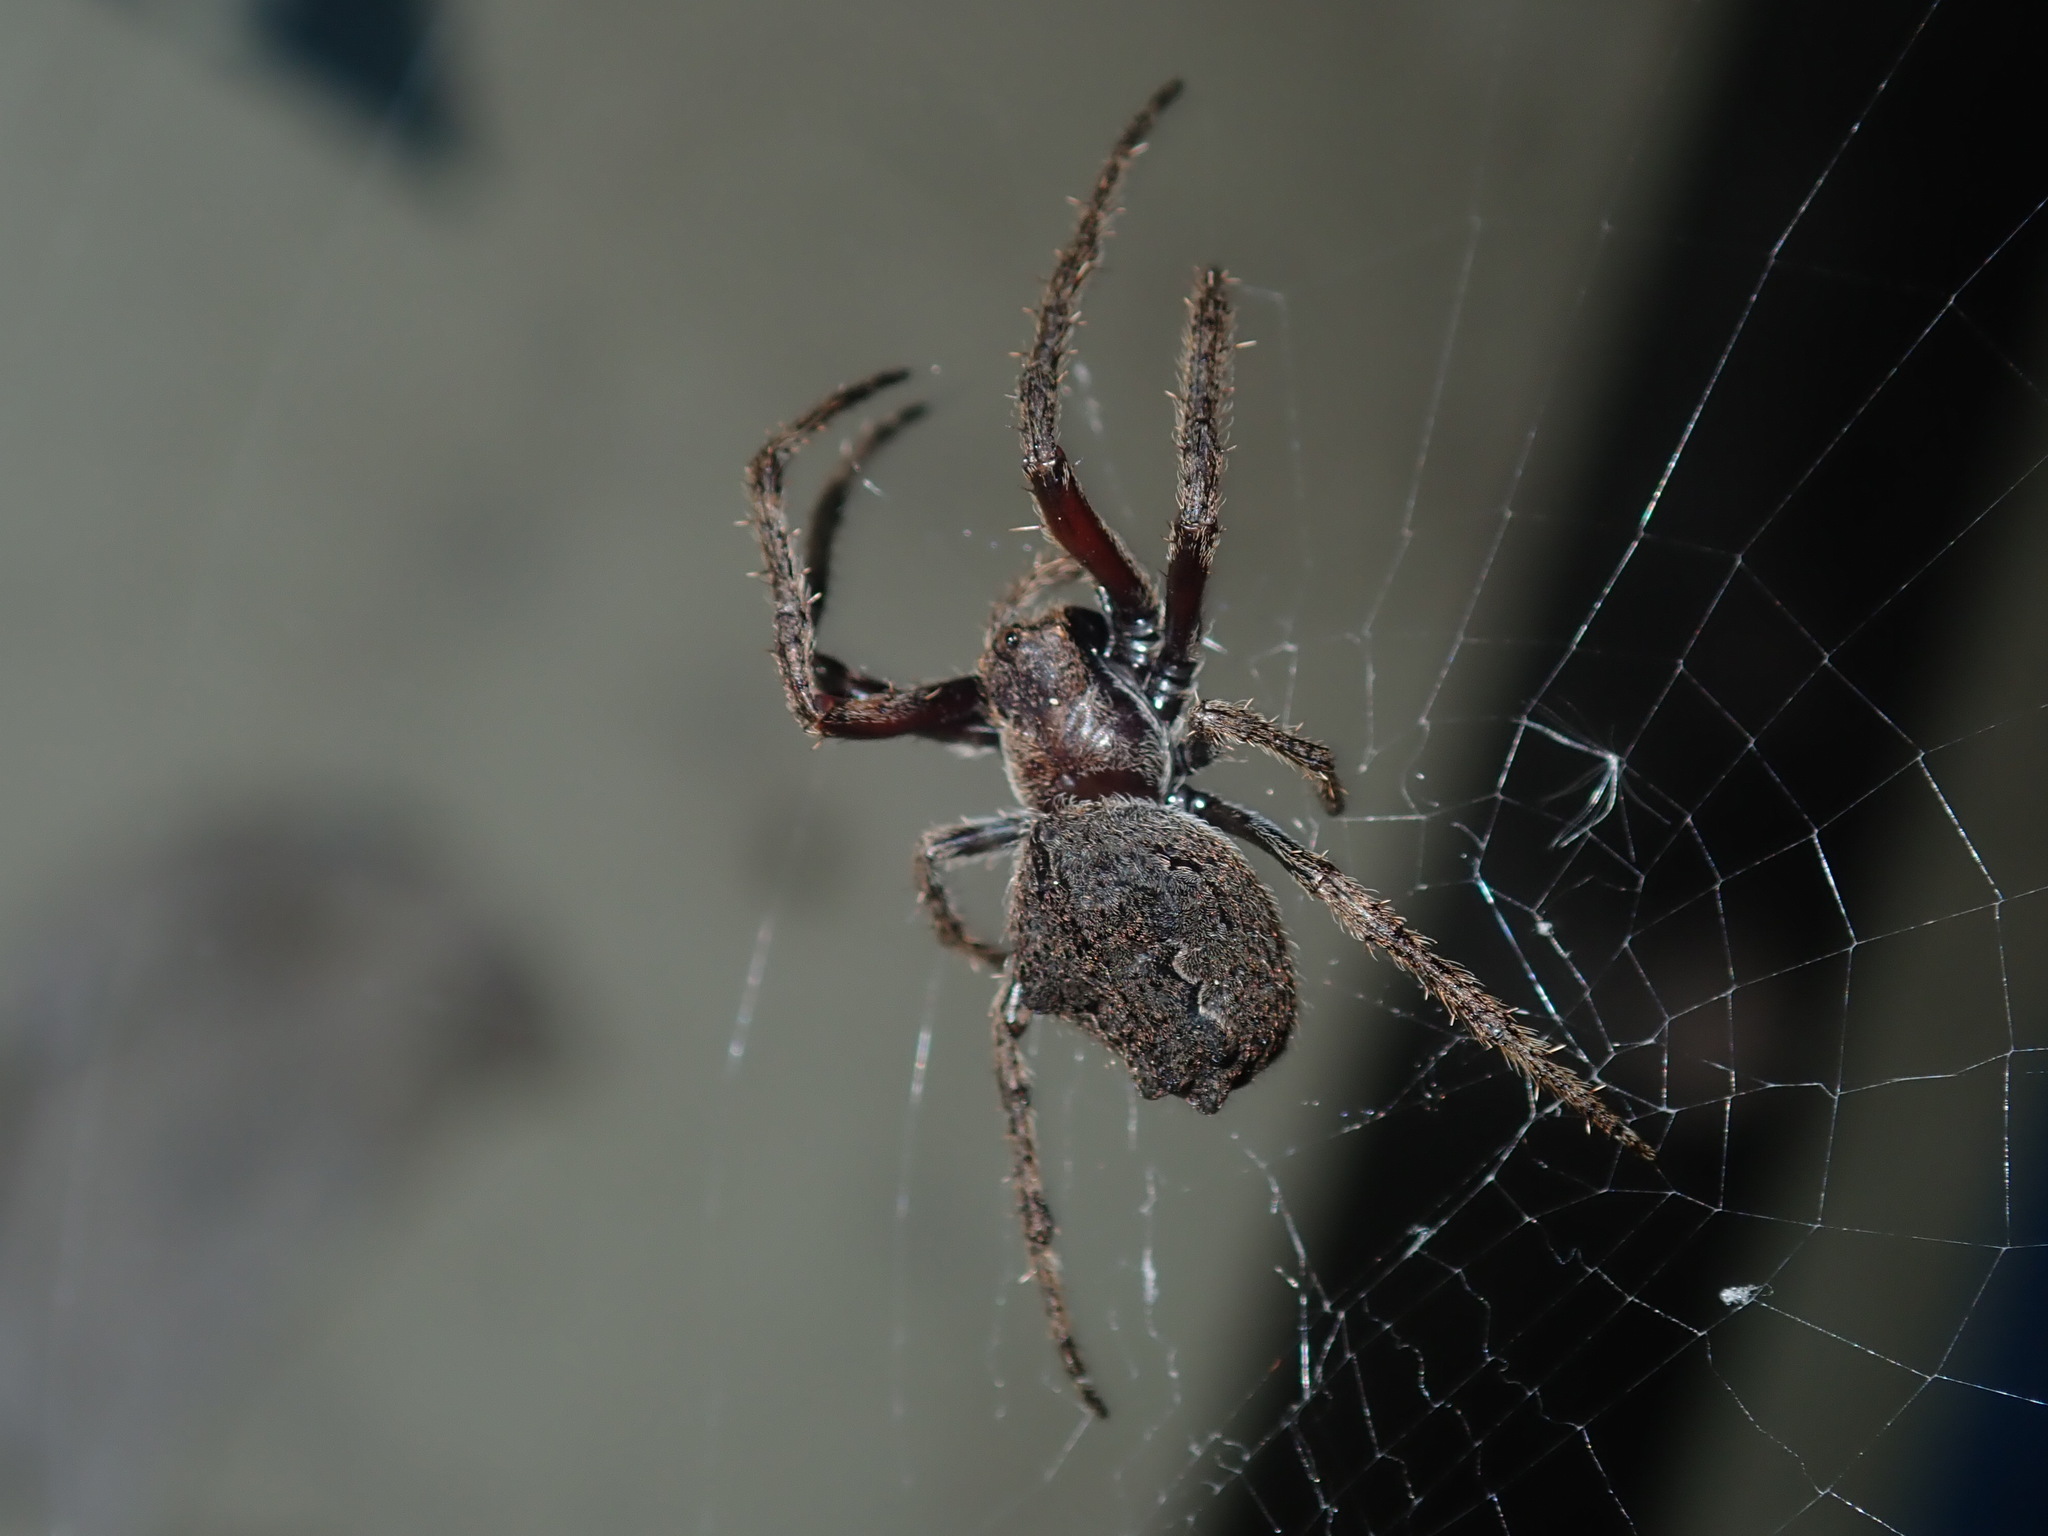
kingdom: Animalia
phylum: Arthropoda
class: Arachnida
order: Araneae
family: Araneidae
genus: Eriophora
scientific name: Eriophora pustulosa
